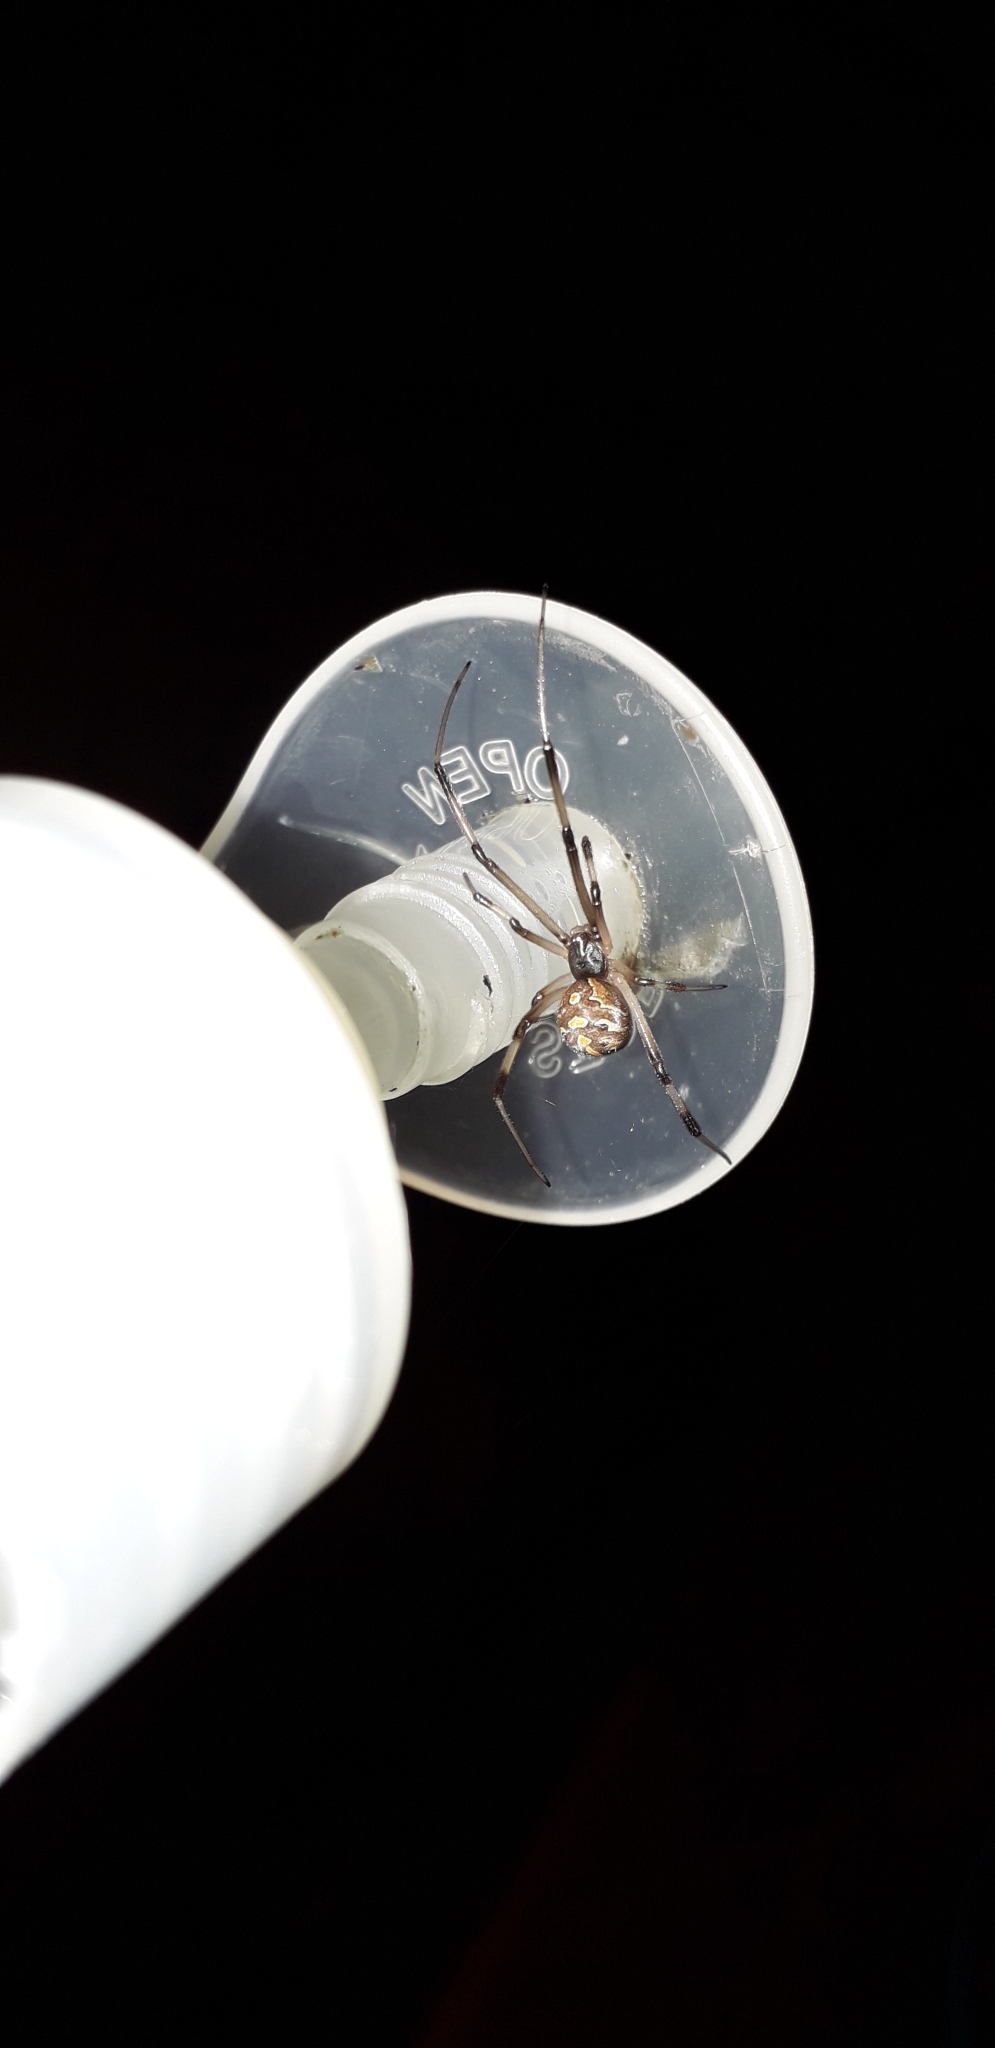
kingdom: Animalia
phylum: Arthropoda
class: Arachnida
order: Araneae
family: Theridiidae
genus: Latrodectus
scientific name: Latrodectus geometricus
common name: Brown widow spider
